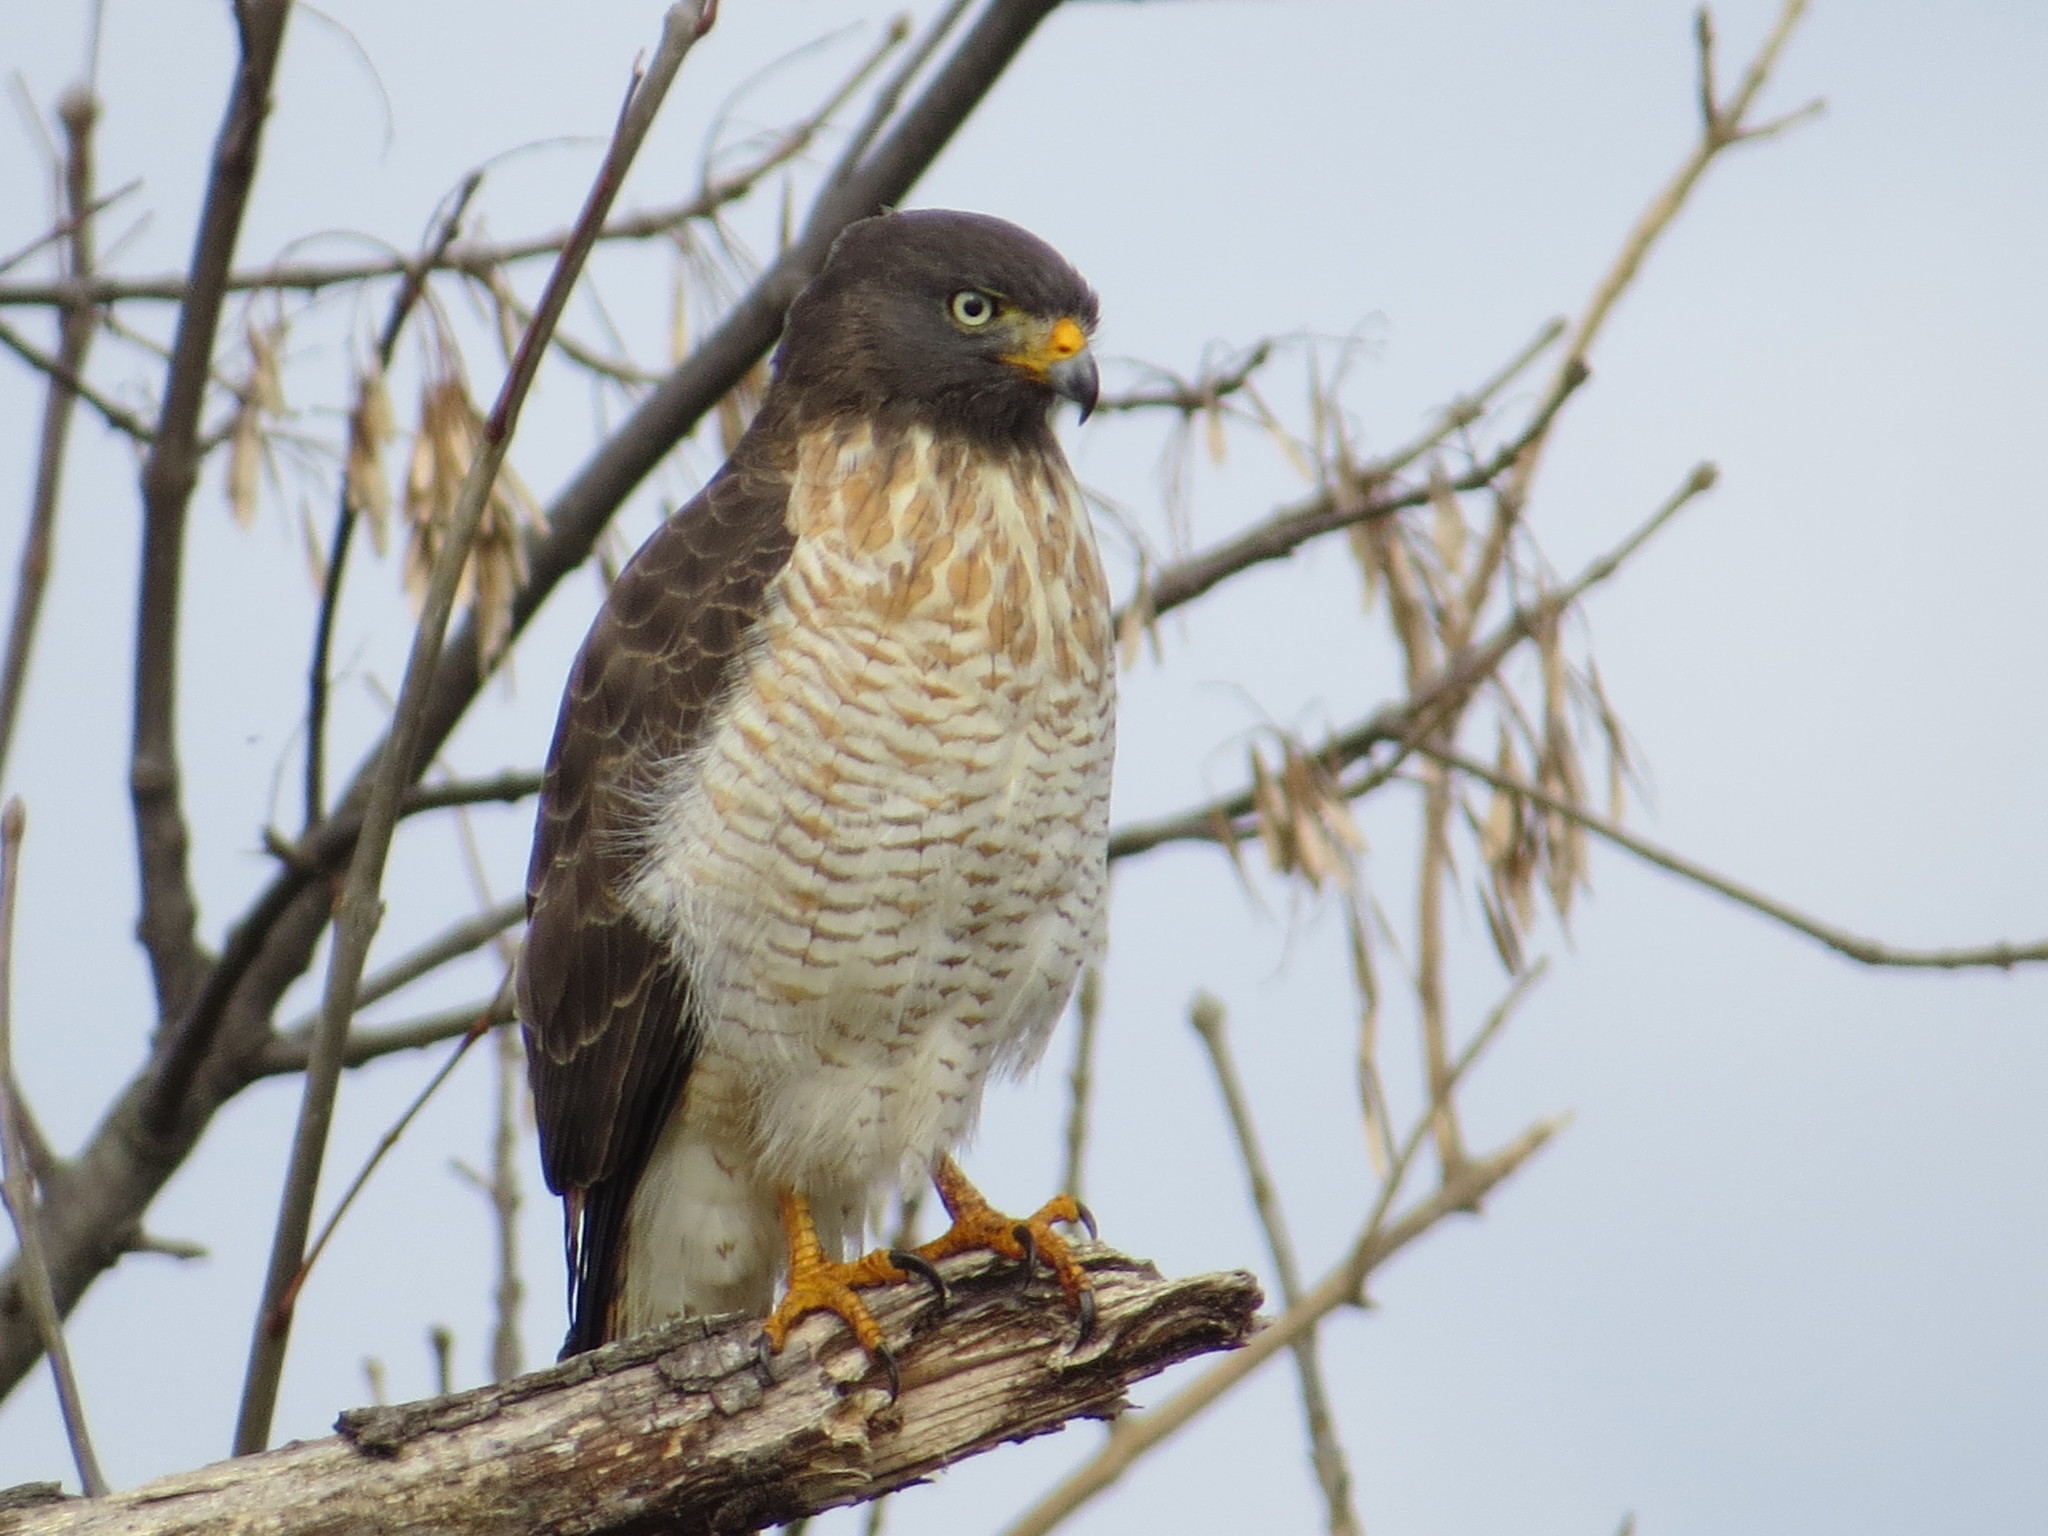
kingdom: Animalia
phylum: Chordata
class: Aves
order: Accipitriformes
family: Accipitridae
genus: Rupornis
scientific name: Rupornis magnirostris
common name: Roadside hawk
